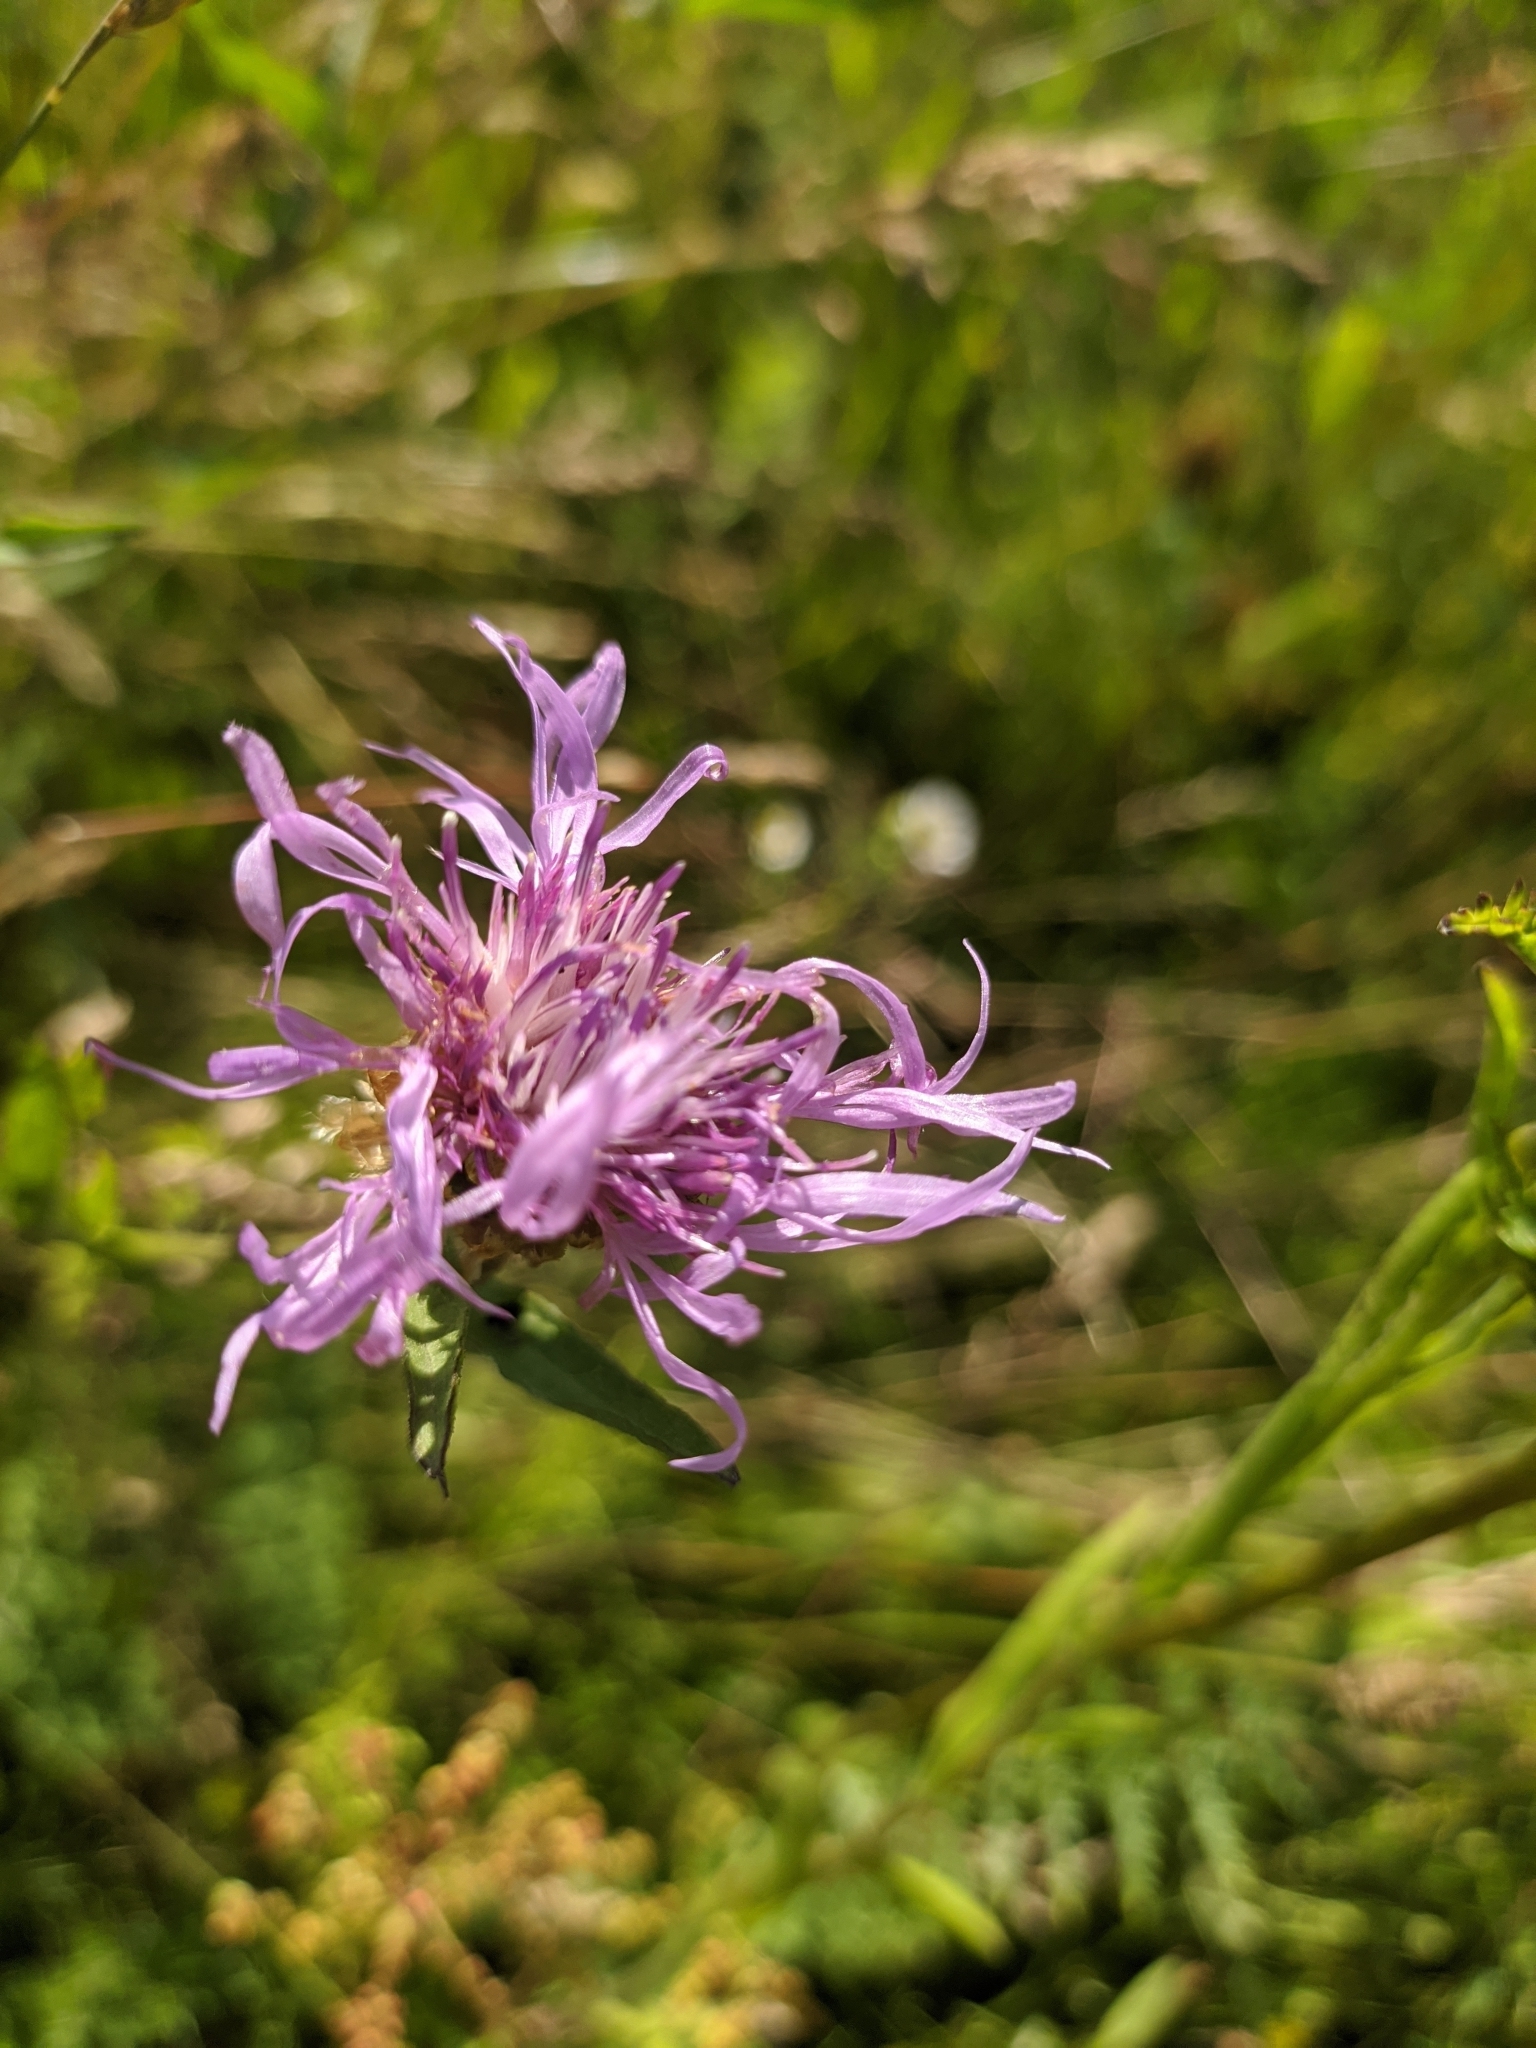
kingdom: Plantae
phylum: Tracheophyta
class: Magnoliopsida
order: Asterales
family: Asteraceae
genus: Centaurea
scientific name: Centaurea jacea
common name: Brown knapweed
